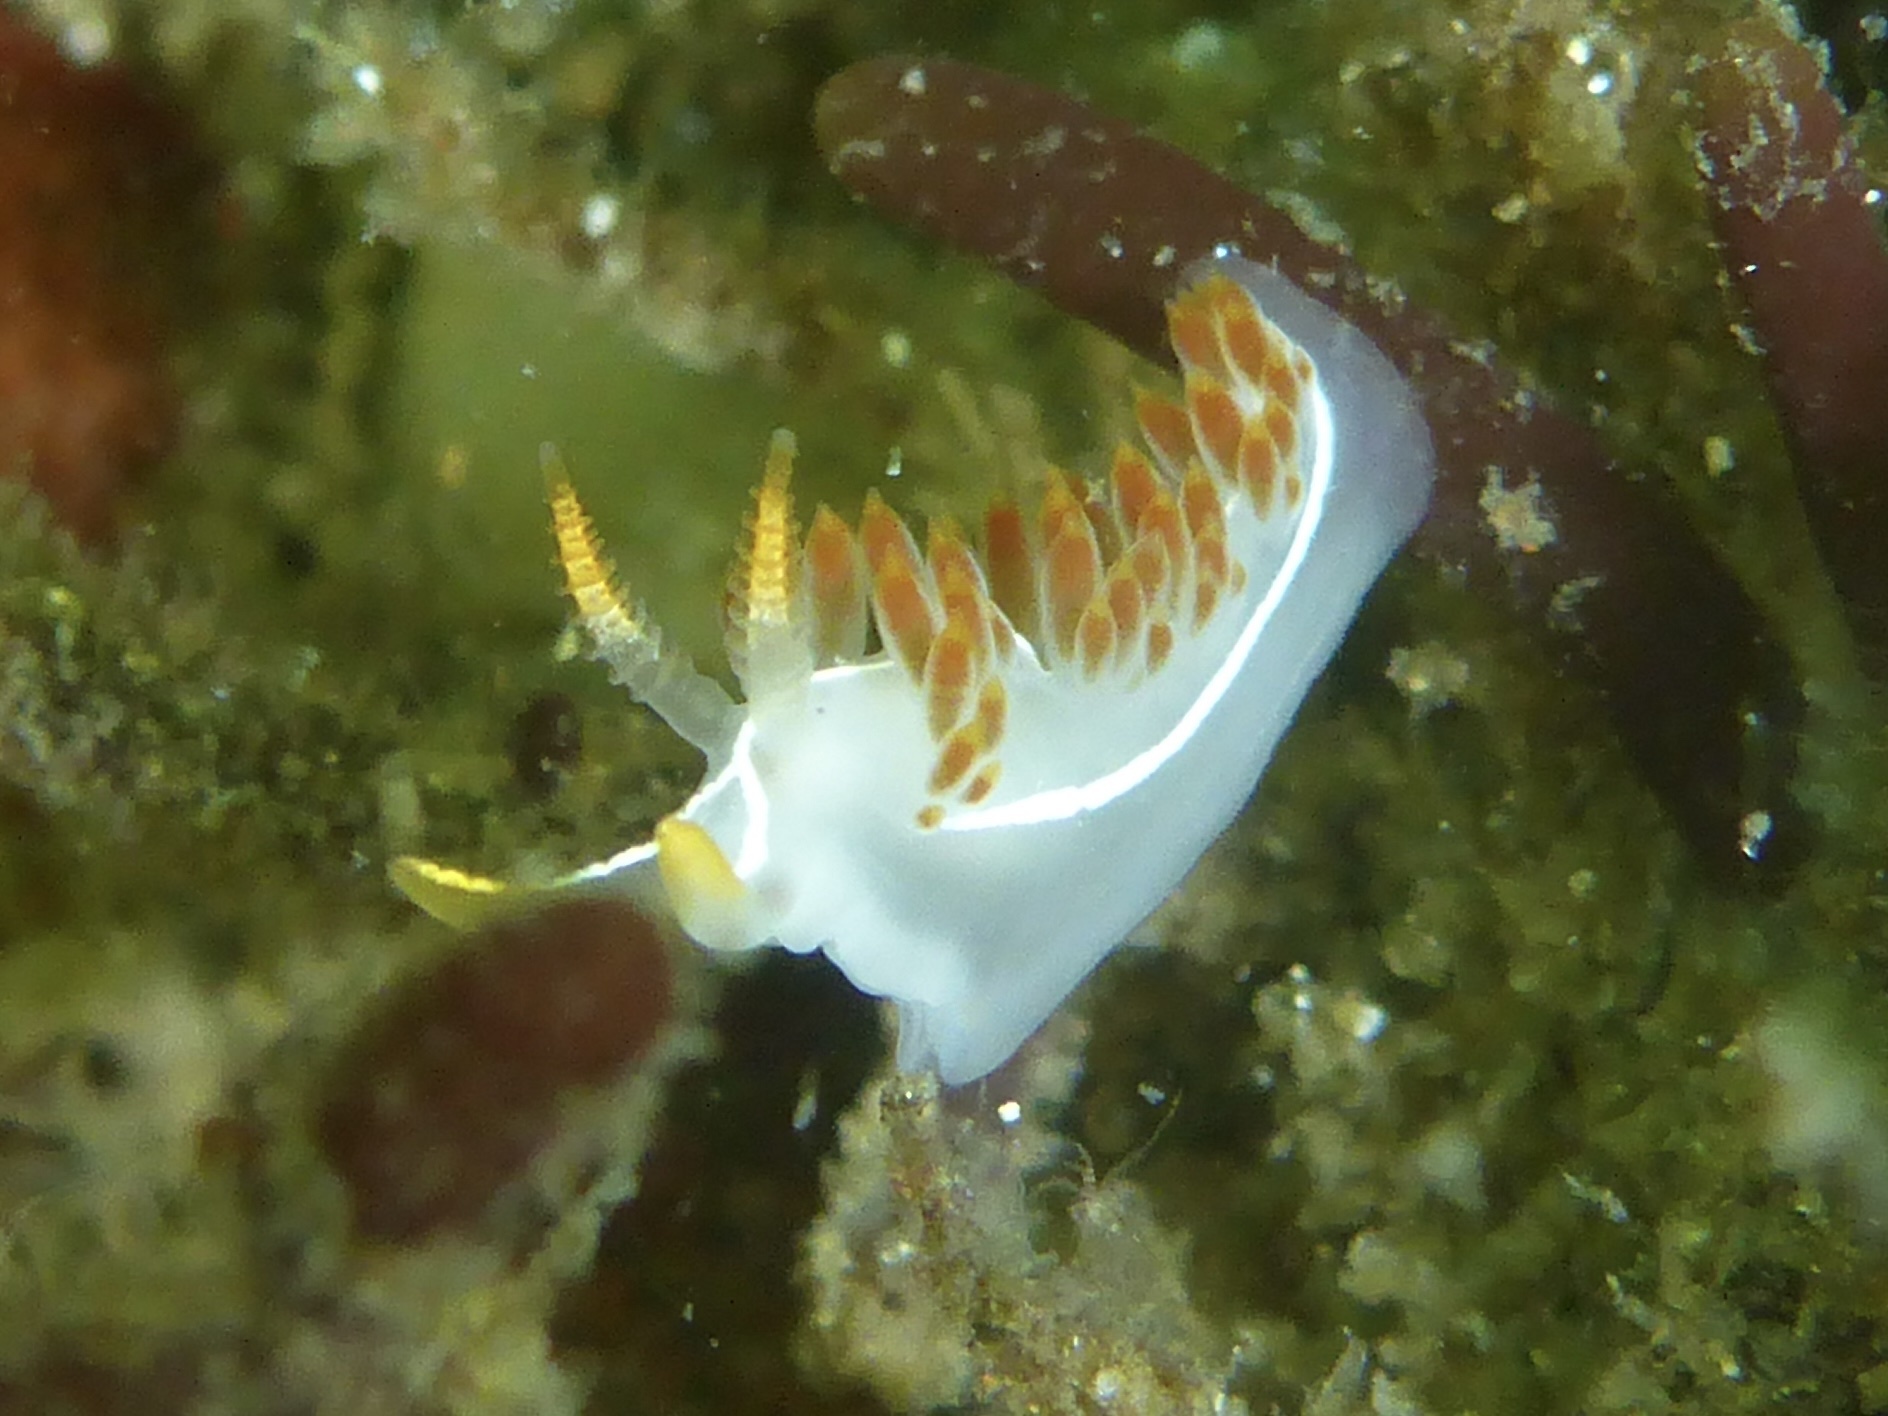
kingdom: Animalia
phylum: Mollusca
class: Gastropoda
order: Nudibranchia
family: Coryphellidae
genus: Coryphella
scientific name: Coryphella trilineata
